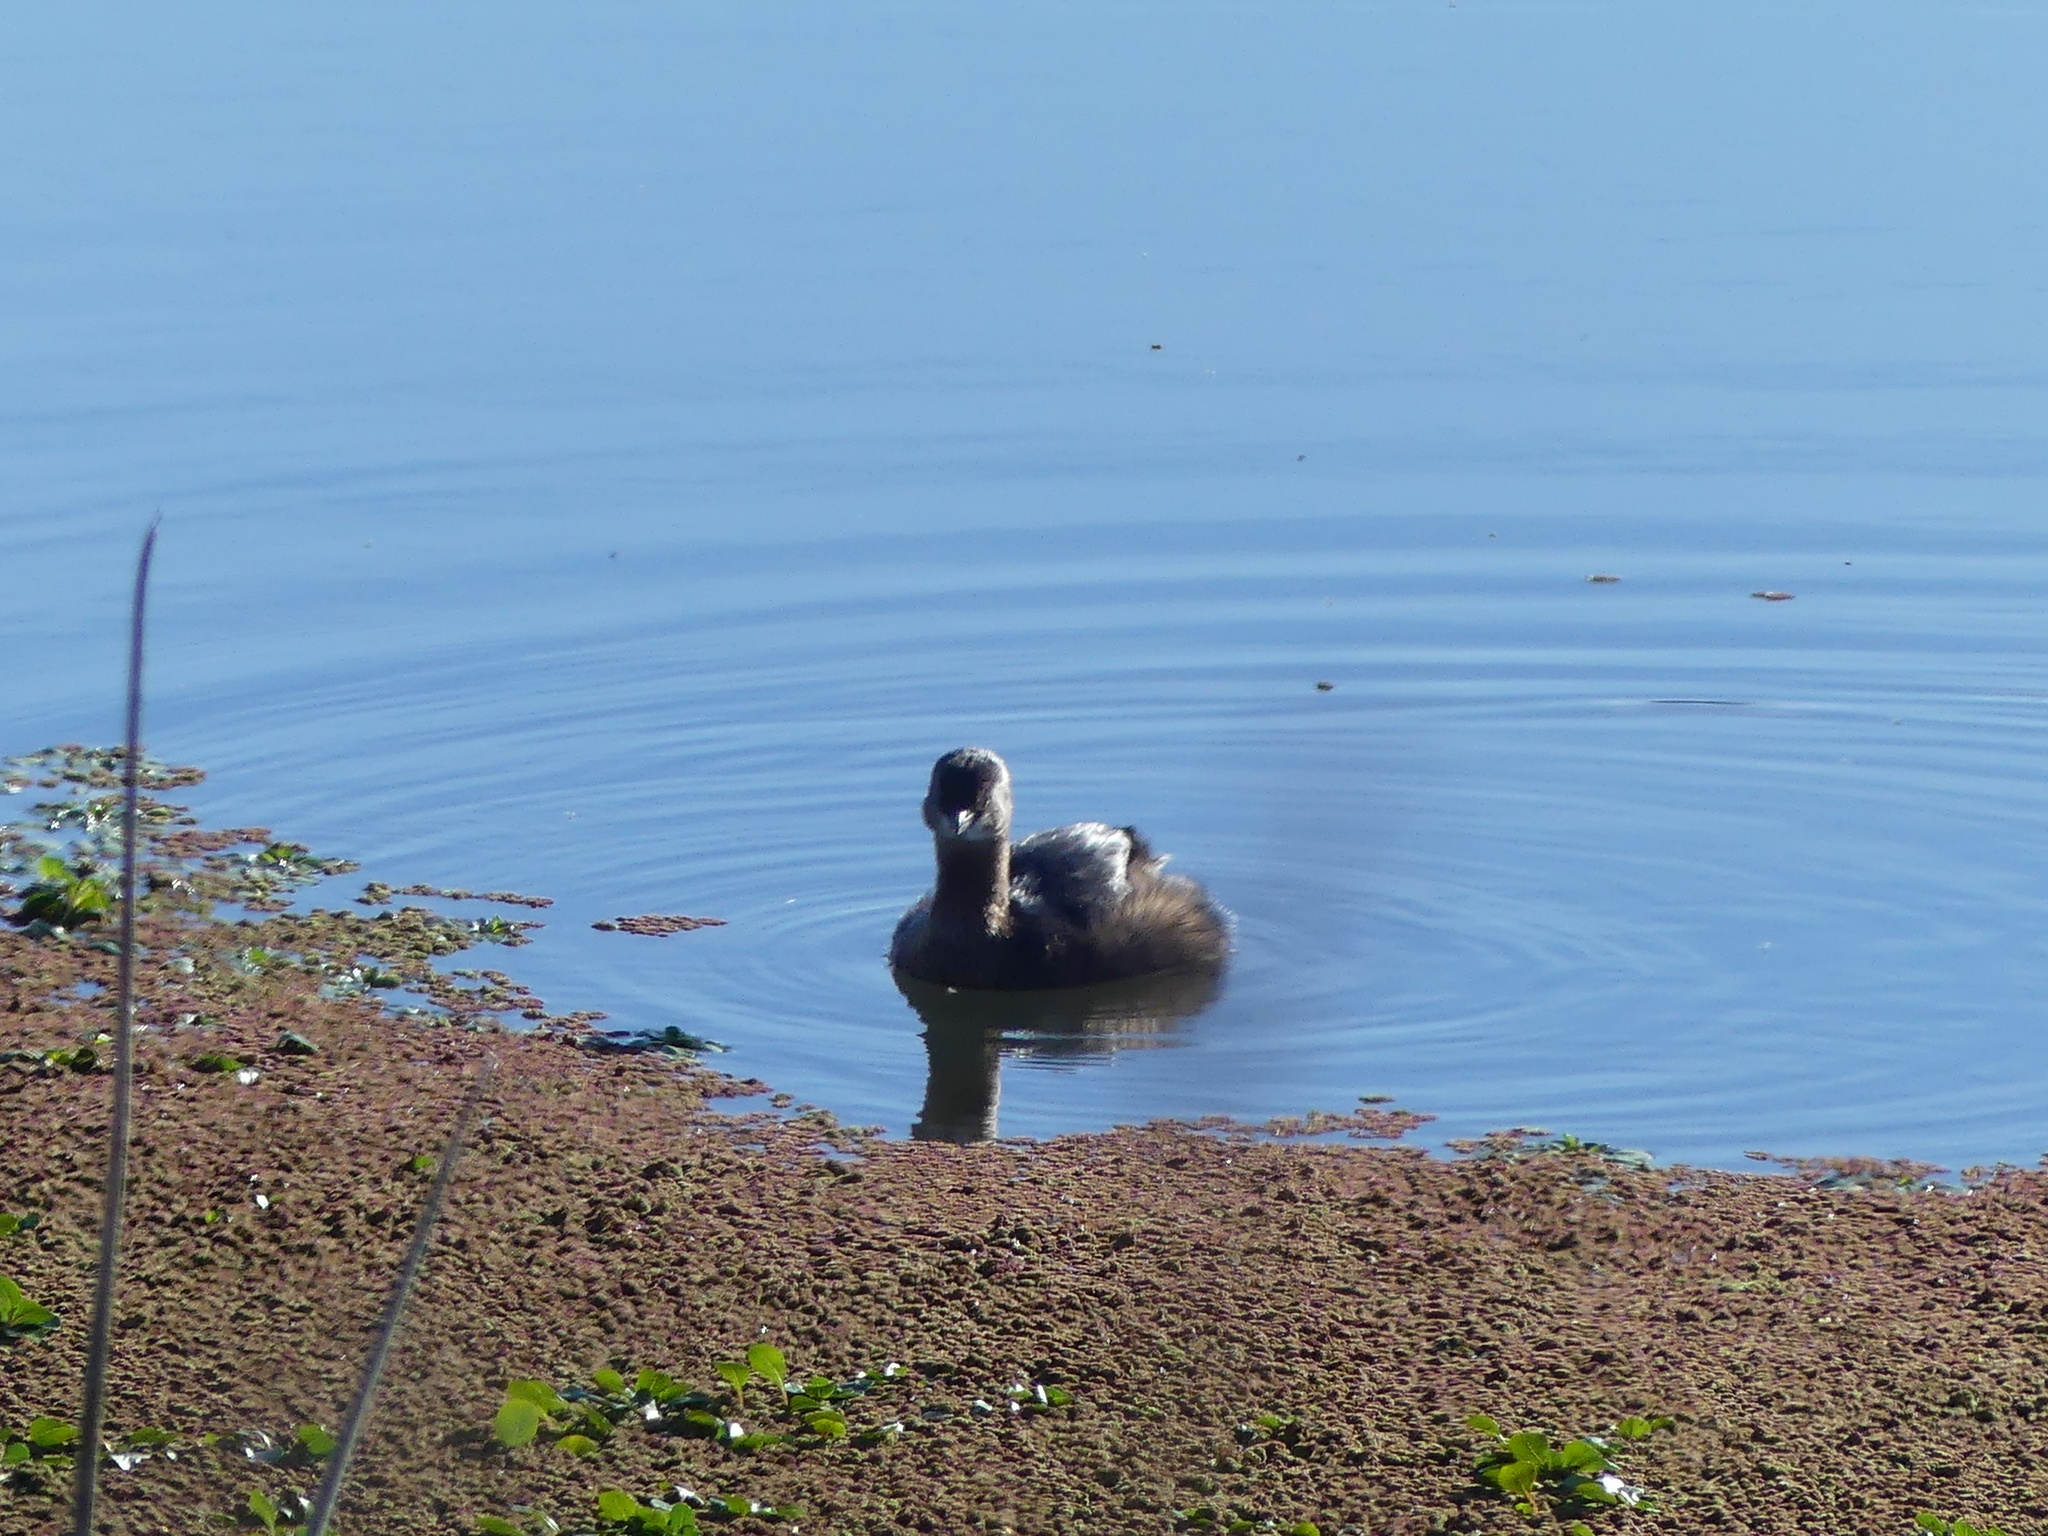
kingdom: Animalia
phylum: Chordata
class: Aves
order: Podicipediformes
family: Podicipedidae
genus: Podilymbus
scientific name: Podilymbus podiceps
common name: Pied-billed grebe
